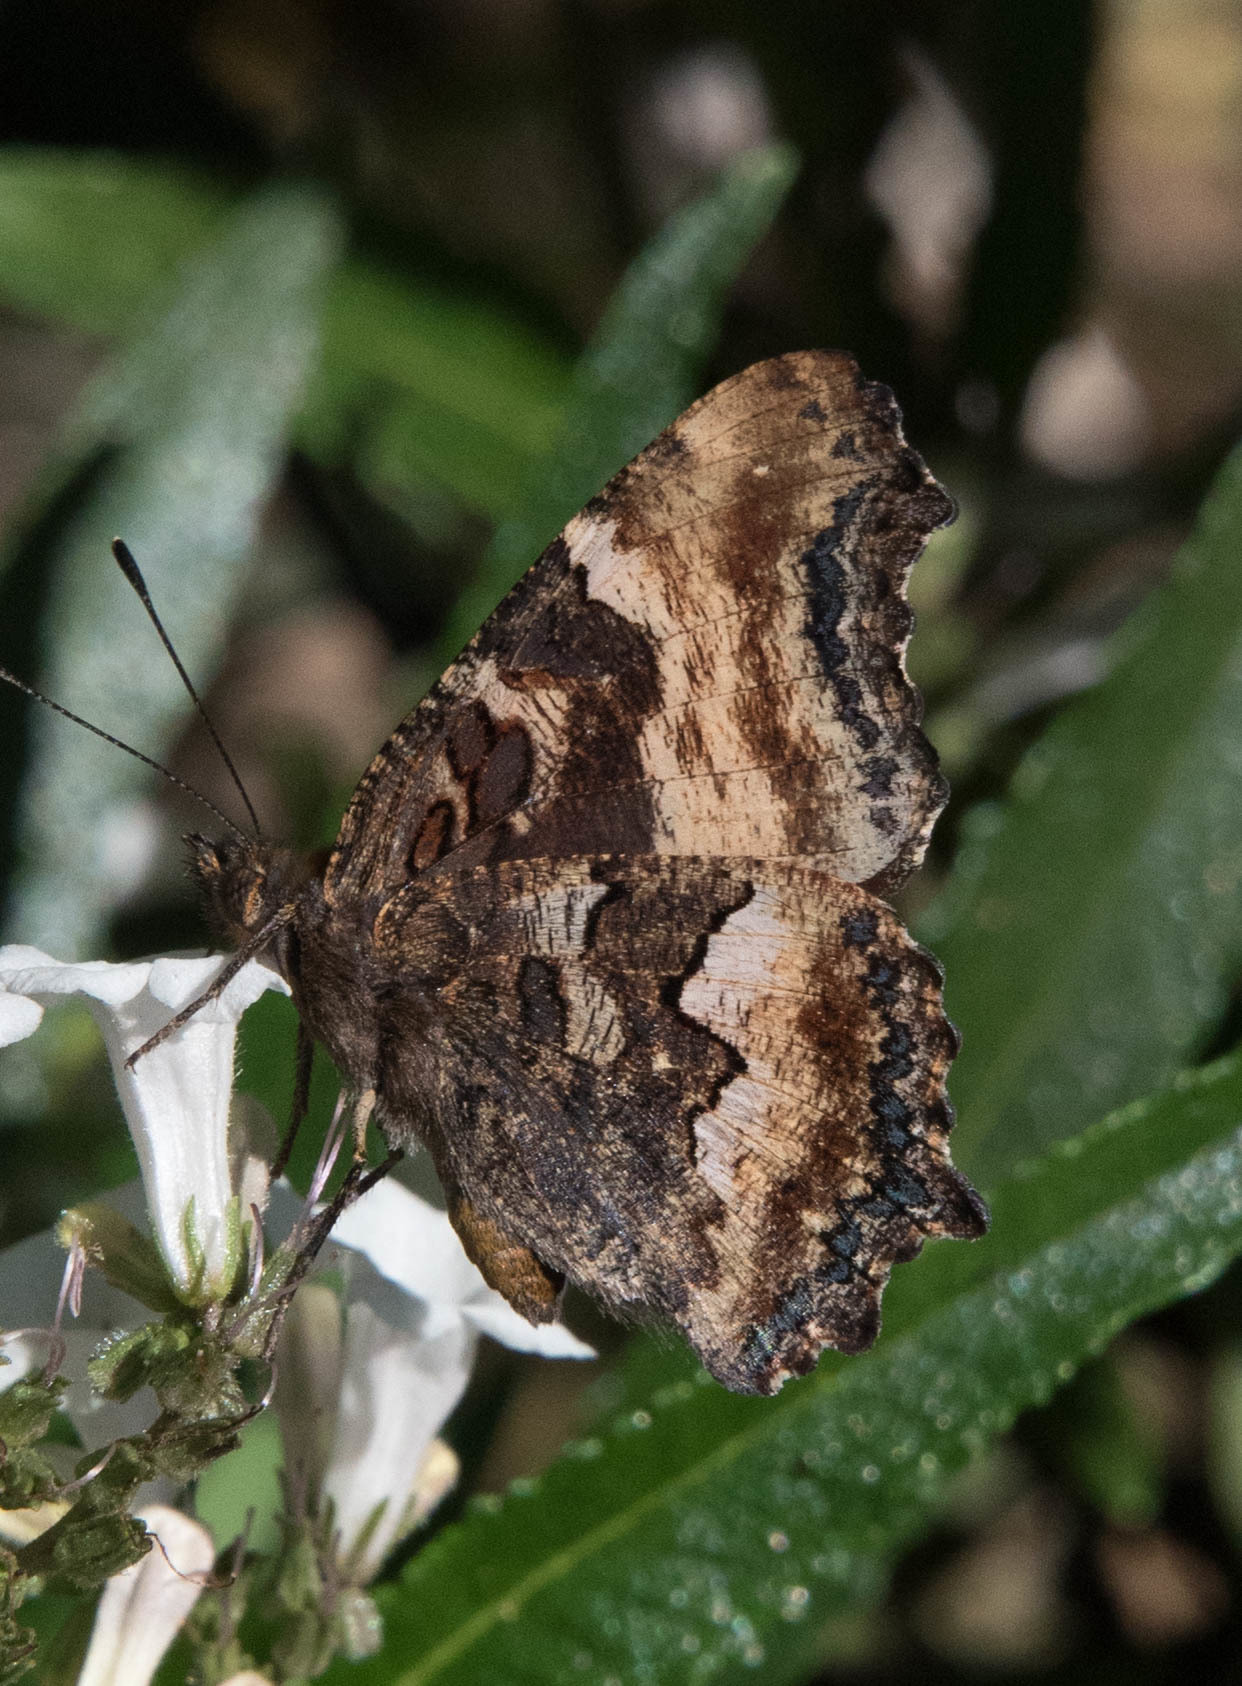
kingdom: Animalia
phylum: Arthropoda
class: Insecta
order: Lepidoptera
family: Nymphalidae
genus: Nymphalis
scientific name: Nymphalis californica
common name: California tortoiseshell
